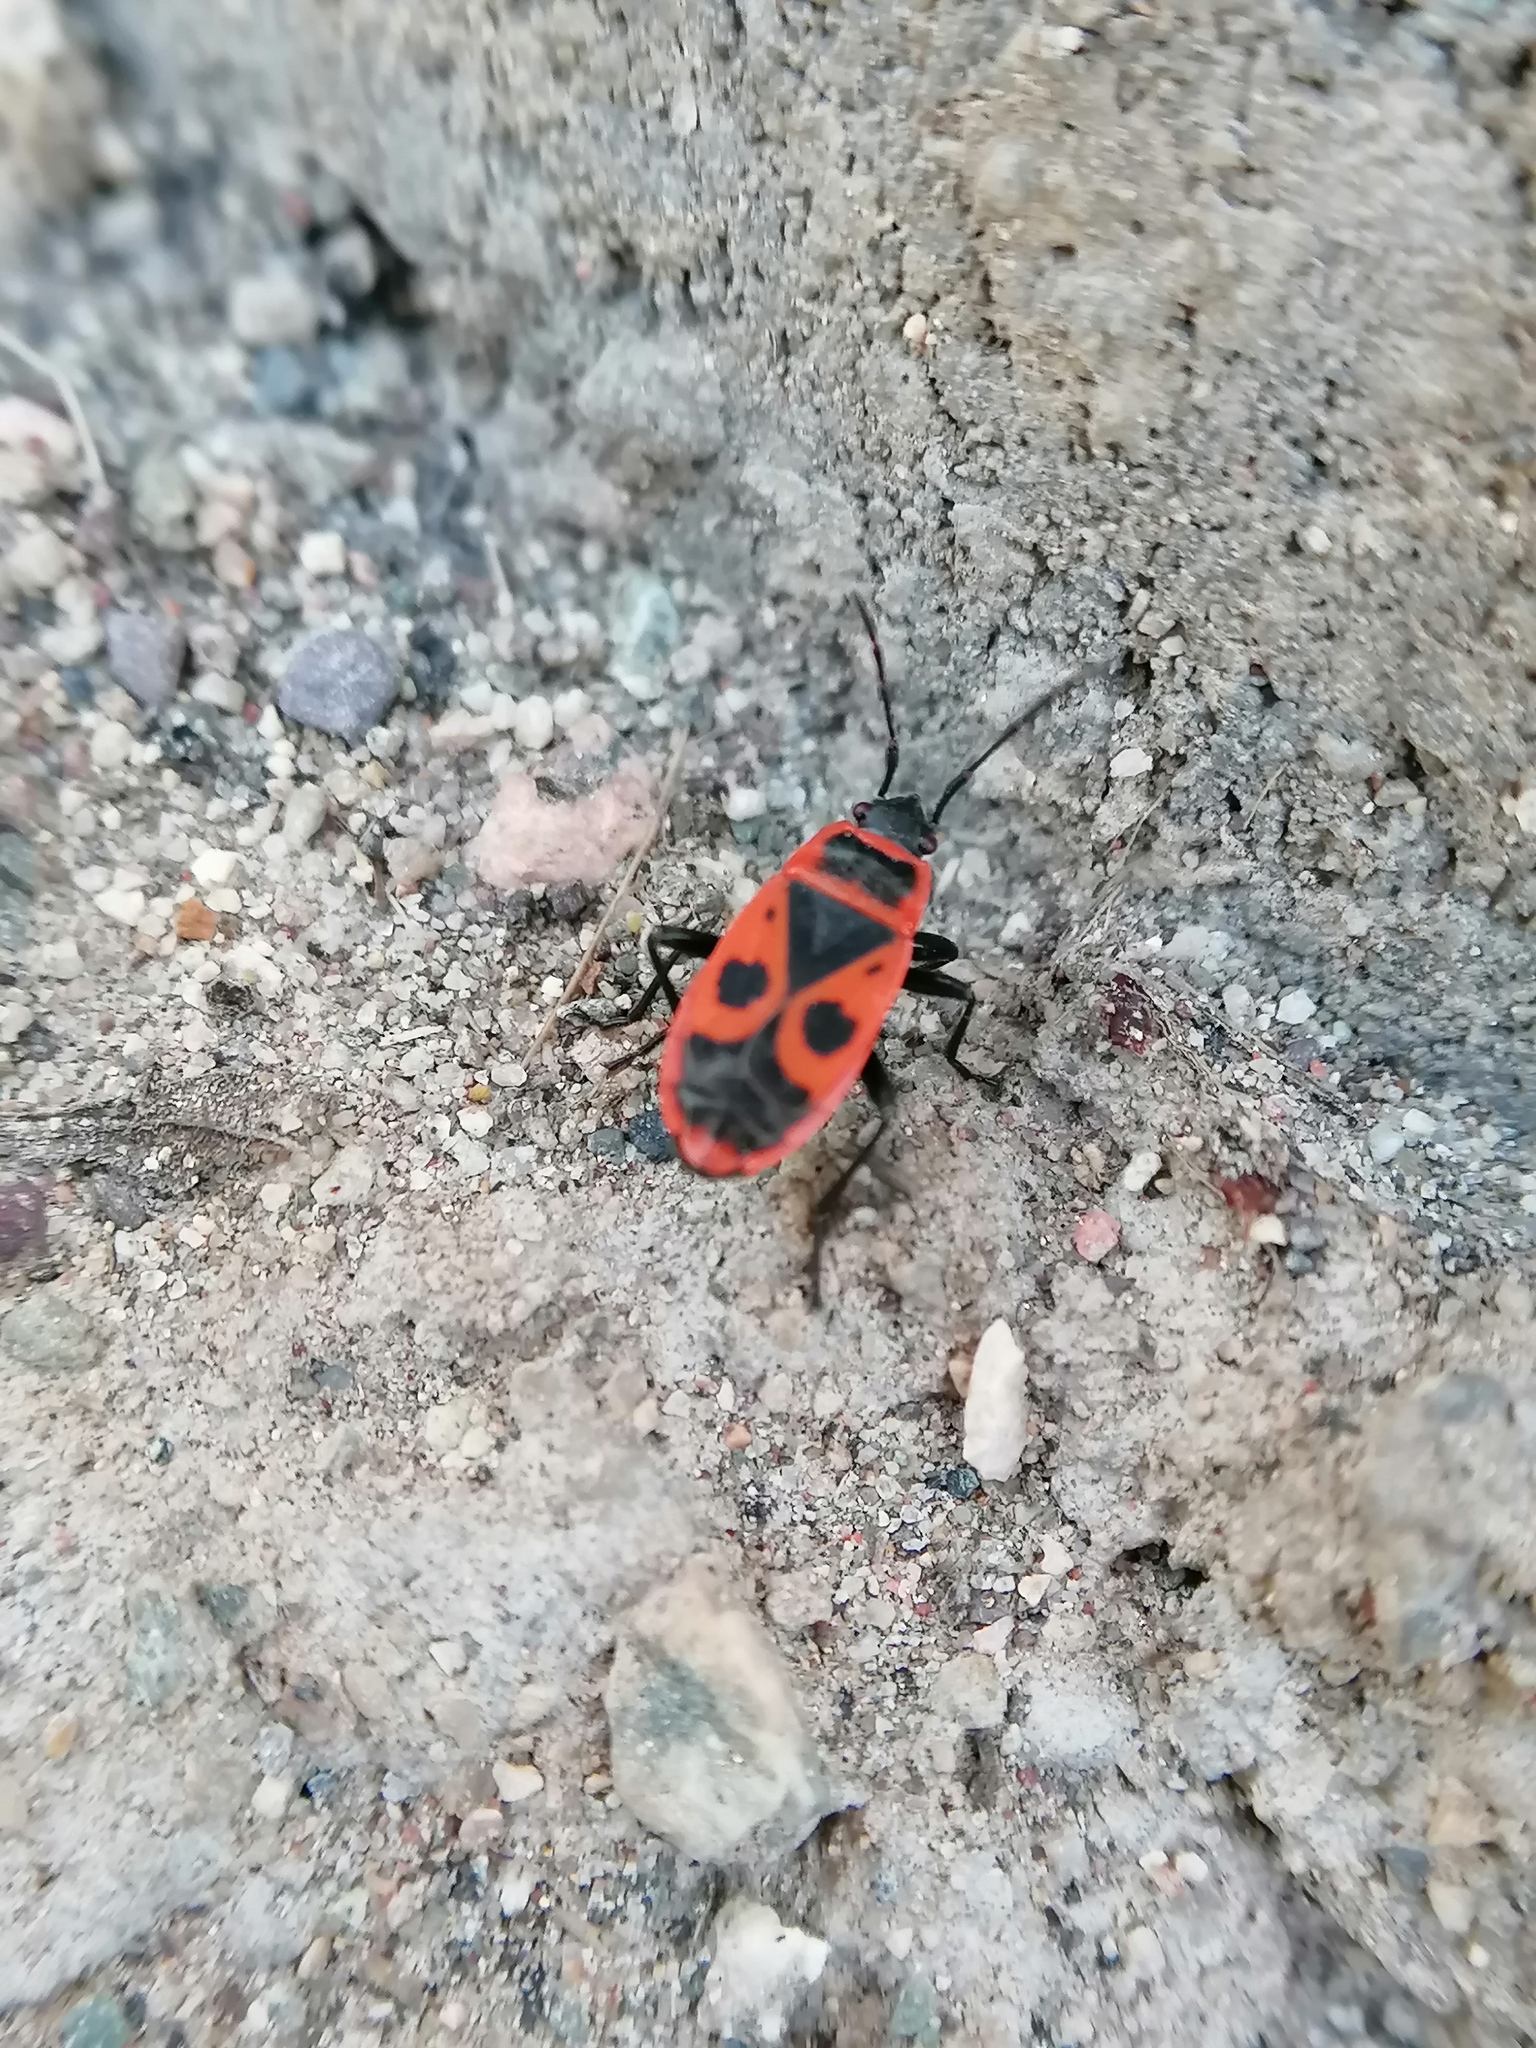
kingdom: Animalia
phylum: Arthropoda
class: Insecta
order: Hemiptera
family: Pyrrhocoridae
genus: Pyrrhocoris
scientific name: Pyrrhocoris apterus
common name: Firebug
